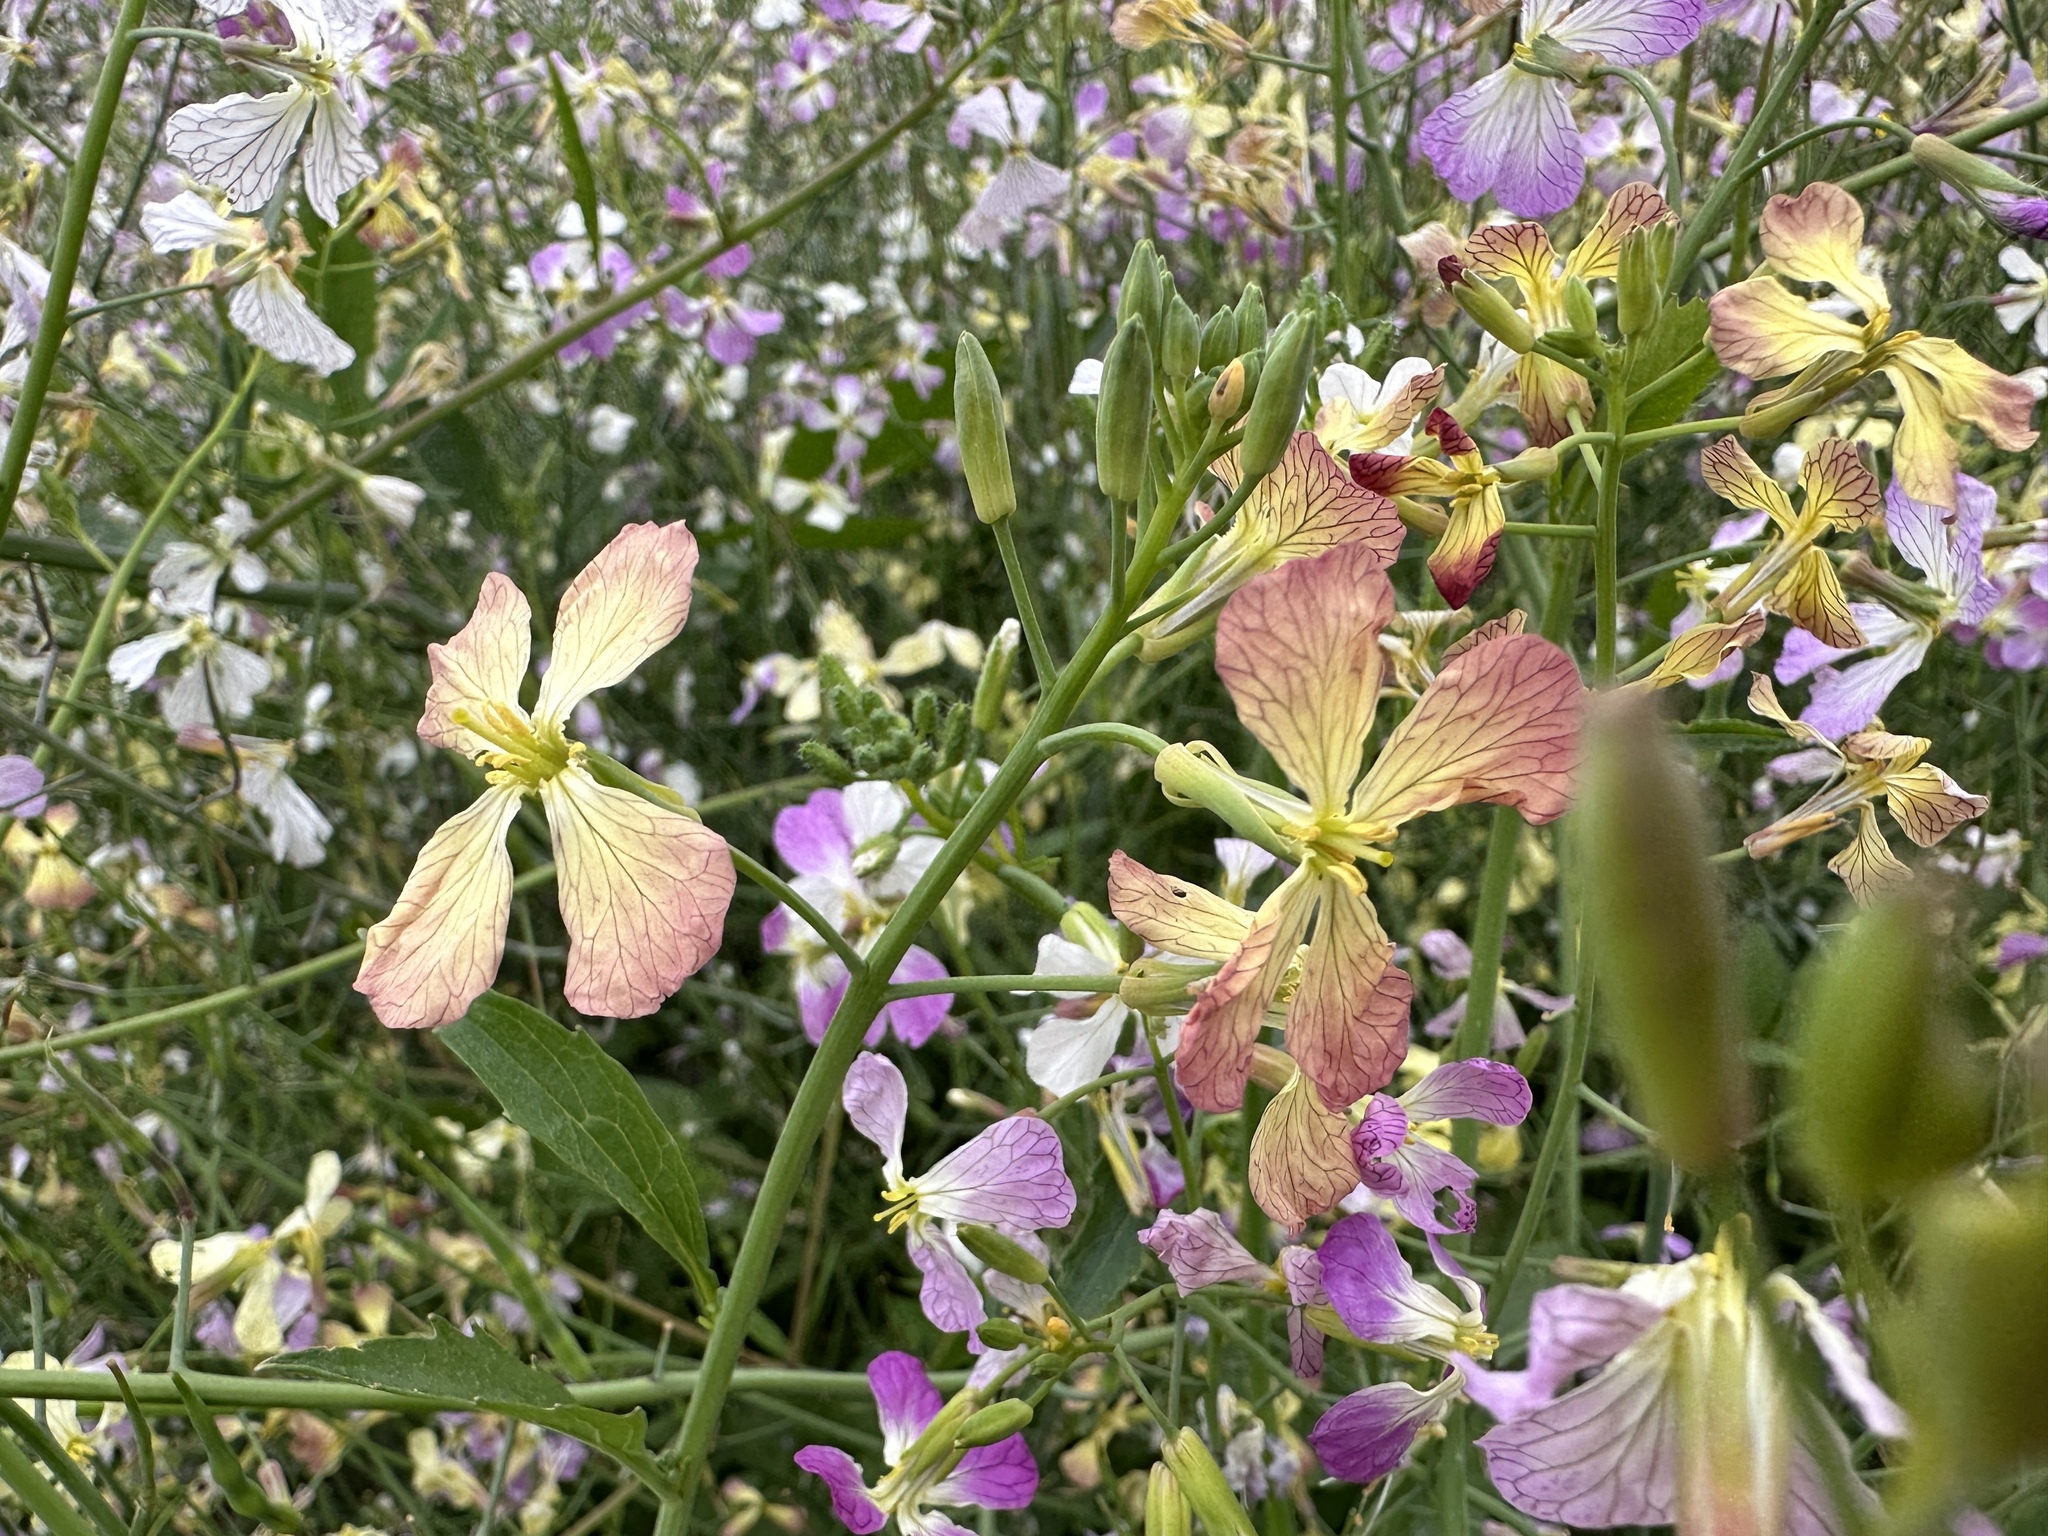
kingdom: Plantae
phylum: Tracheophyta
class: Magnoliopsida
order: Brassicales
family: Brassicaceae
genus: Raphanus
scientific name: Raphanus sativus
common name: Cultivated radish
